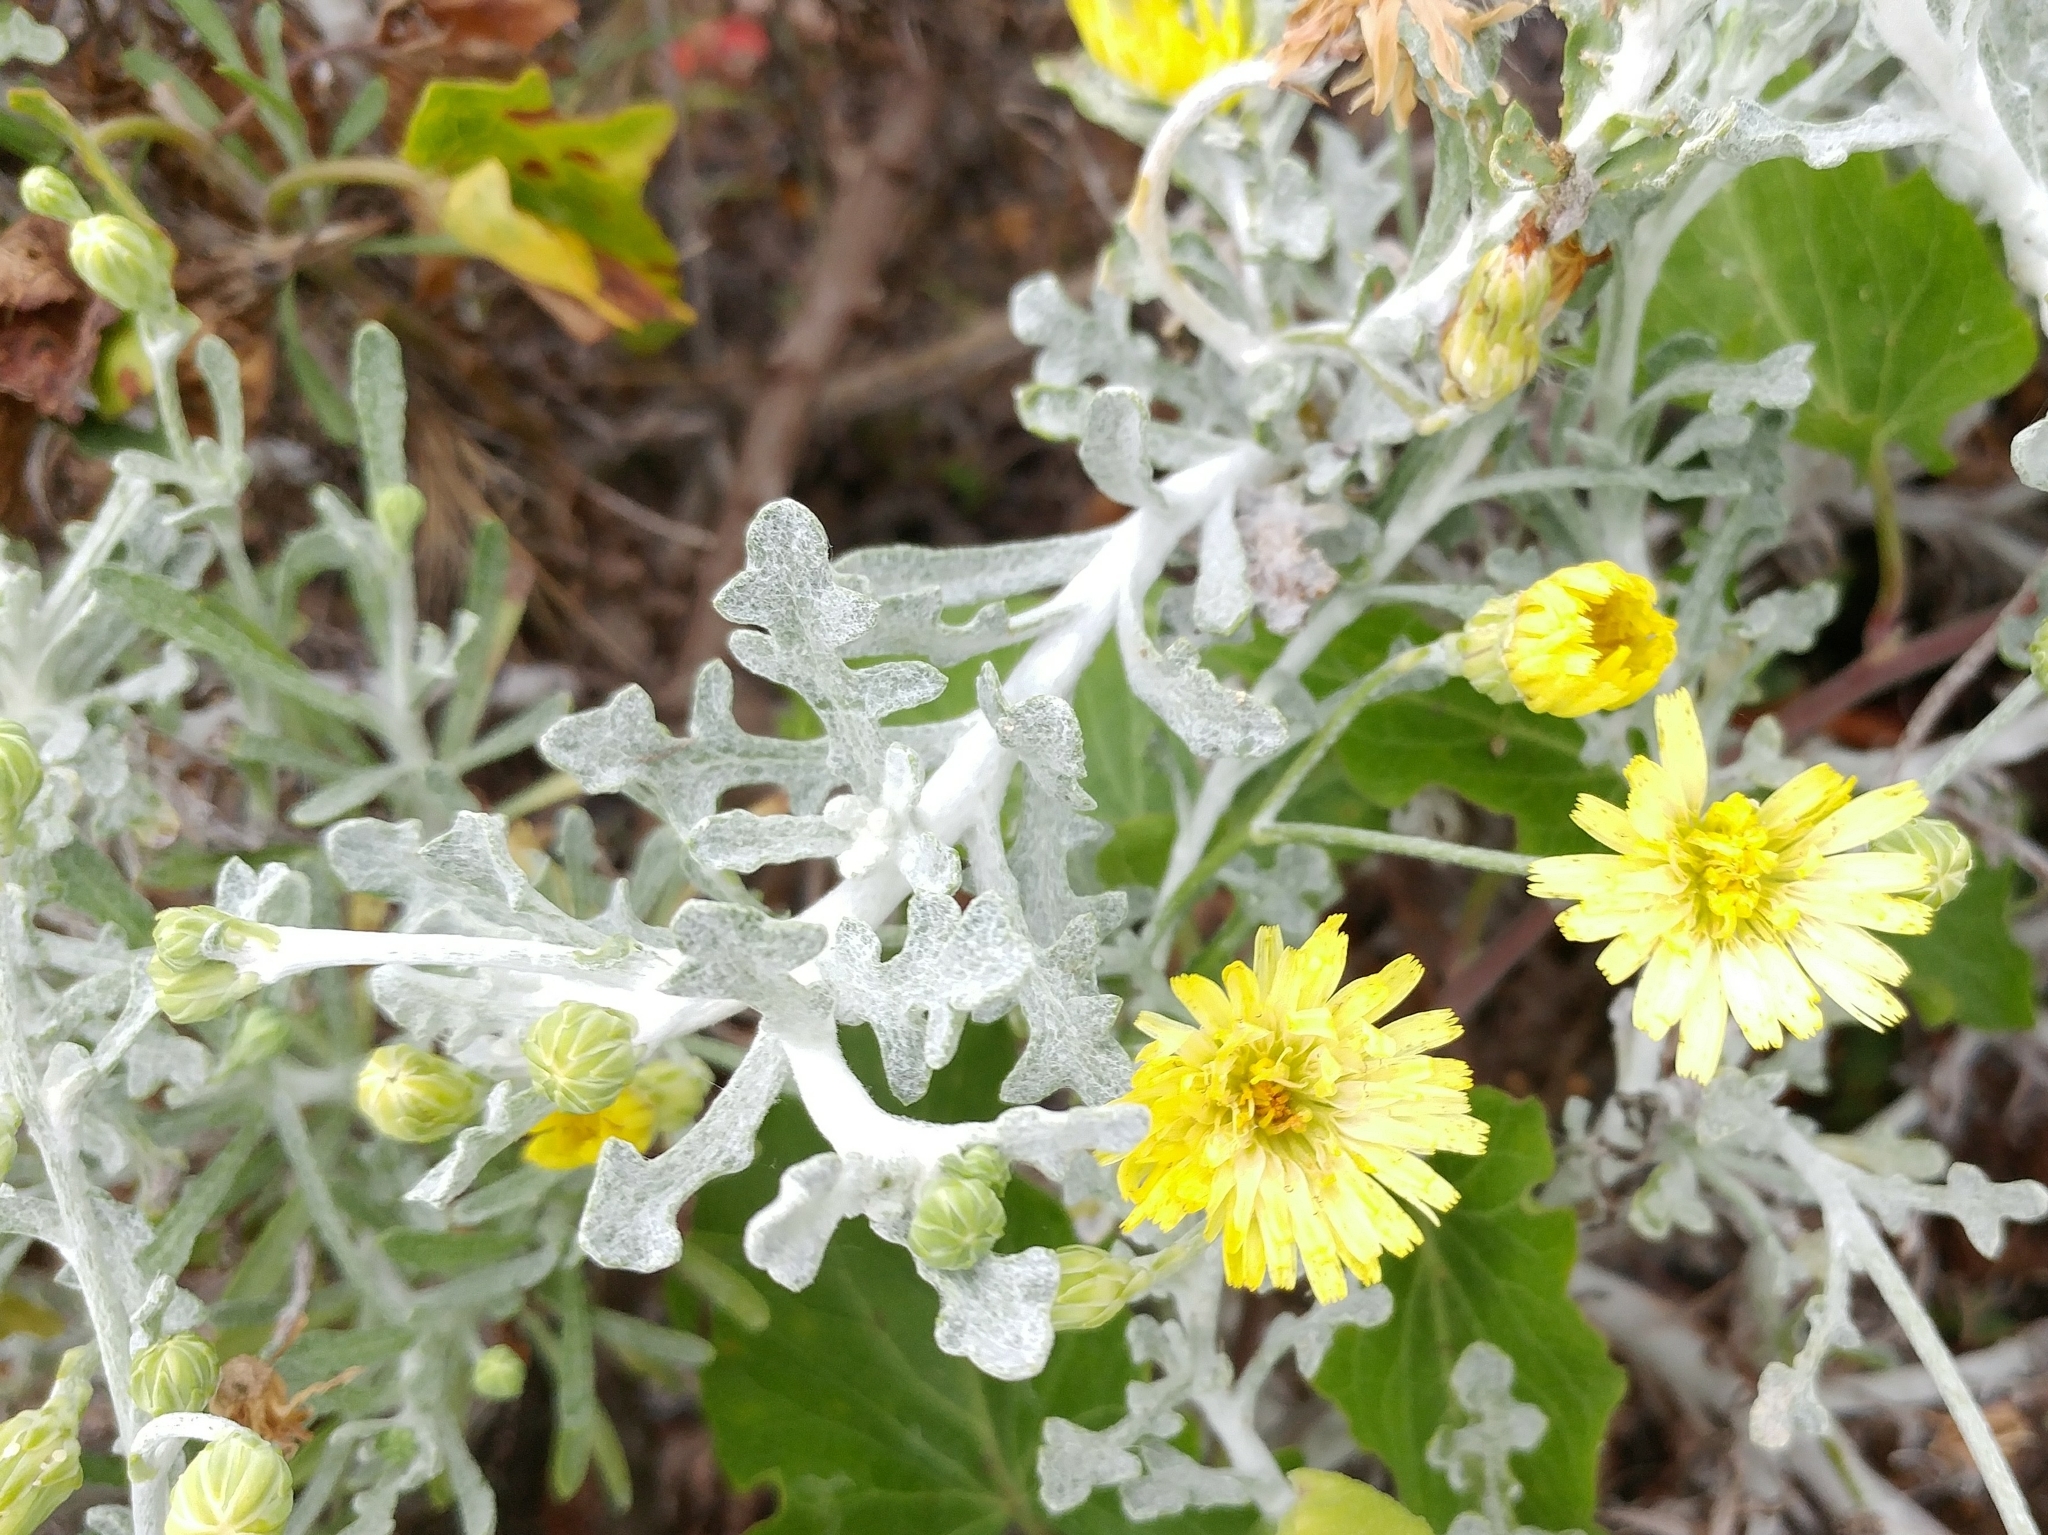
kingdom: Plantae
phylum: Tracheophyta
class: Magnoliopsida
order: Asterales
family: Asteraceae
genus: Malacothrix
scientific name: Malacothrix incana
